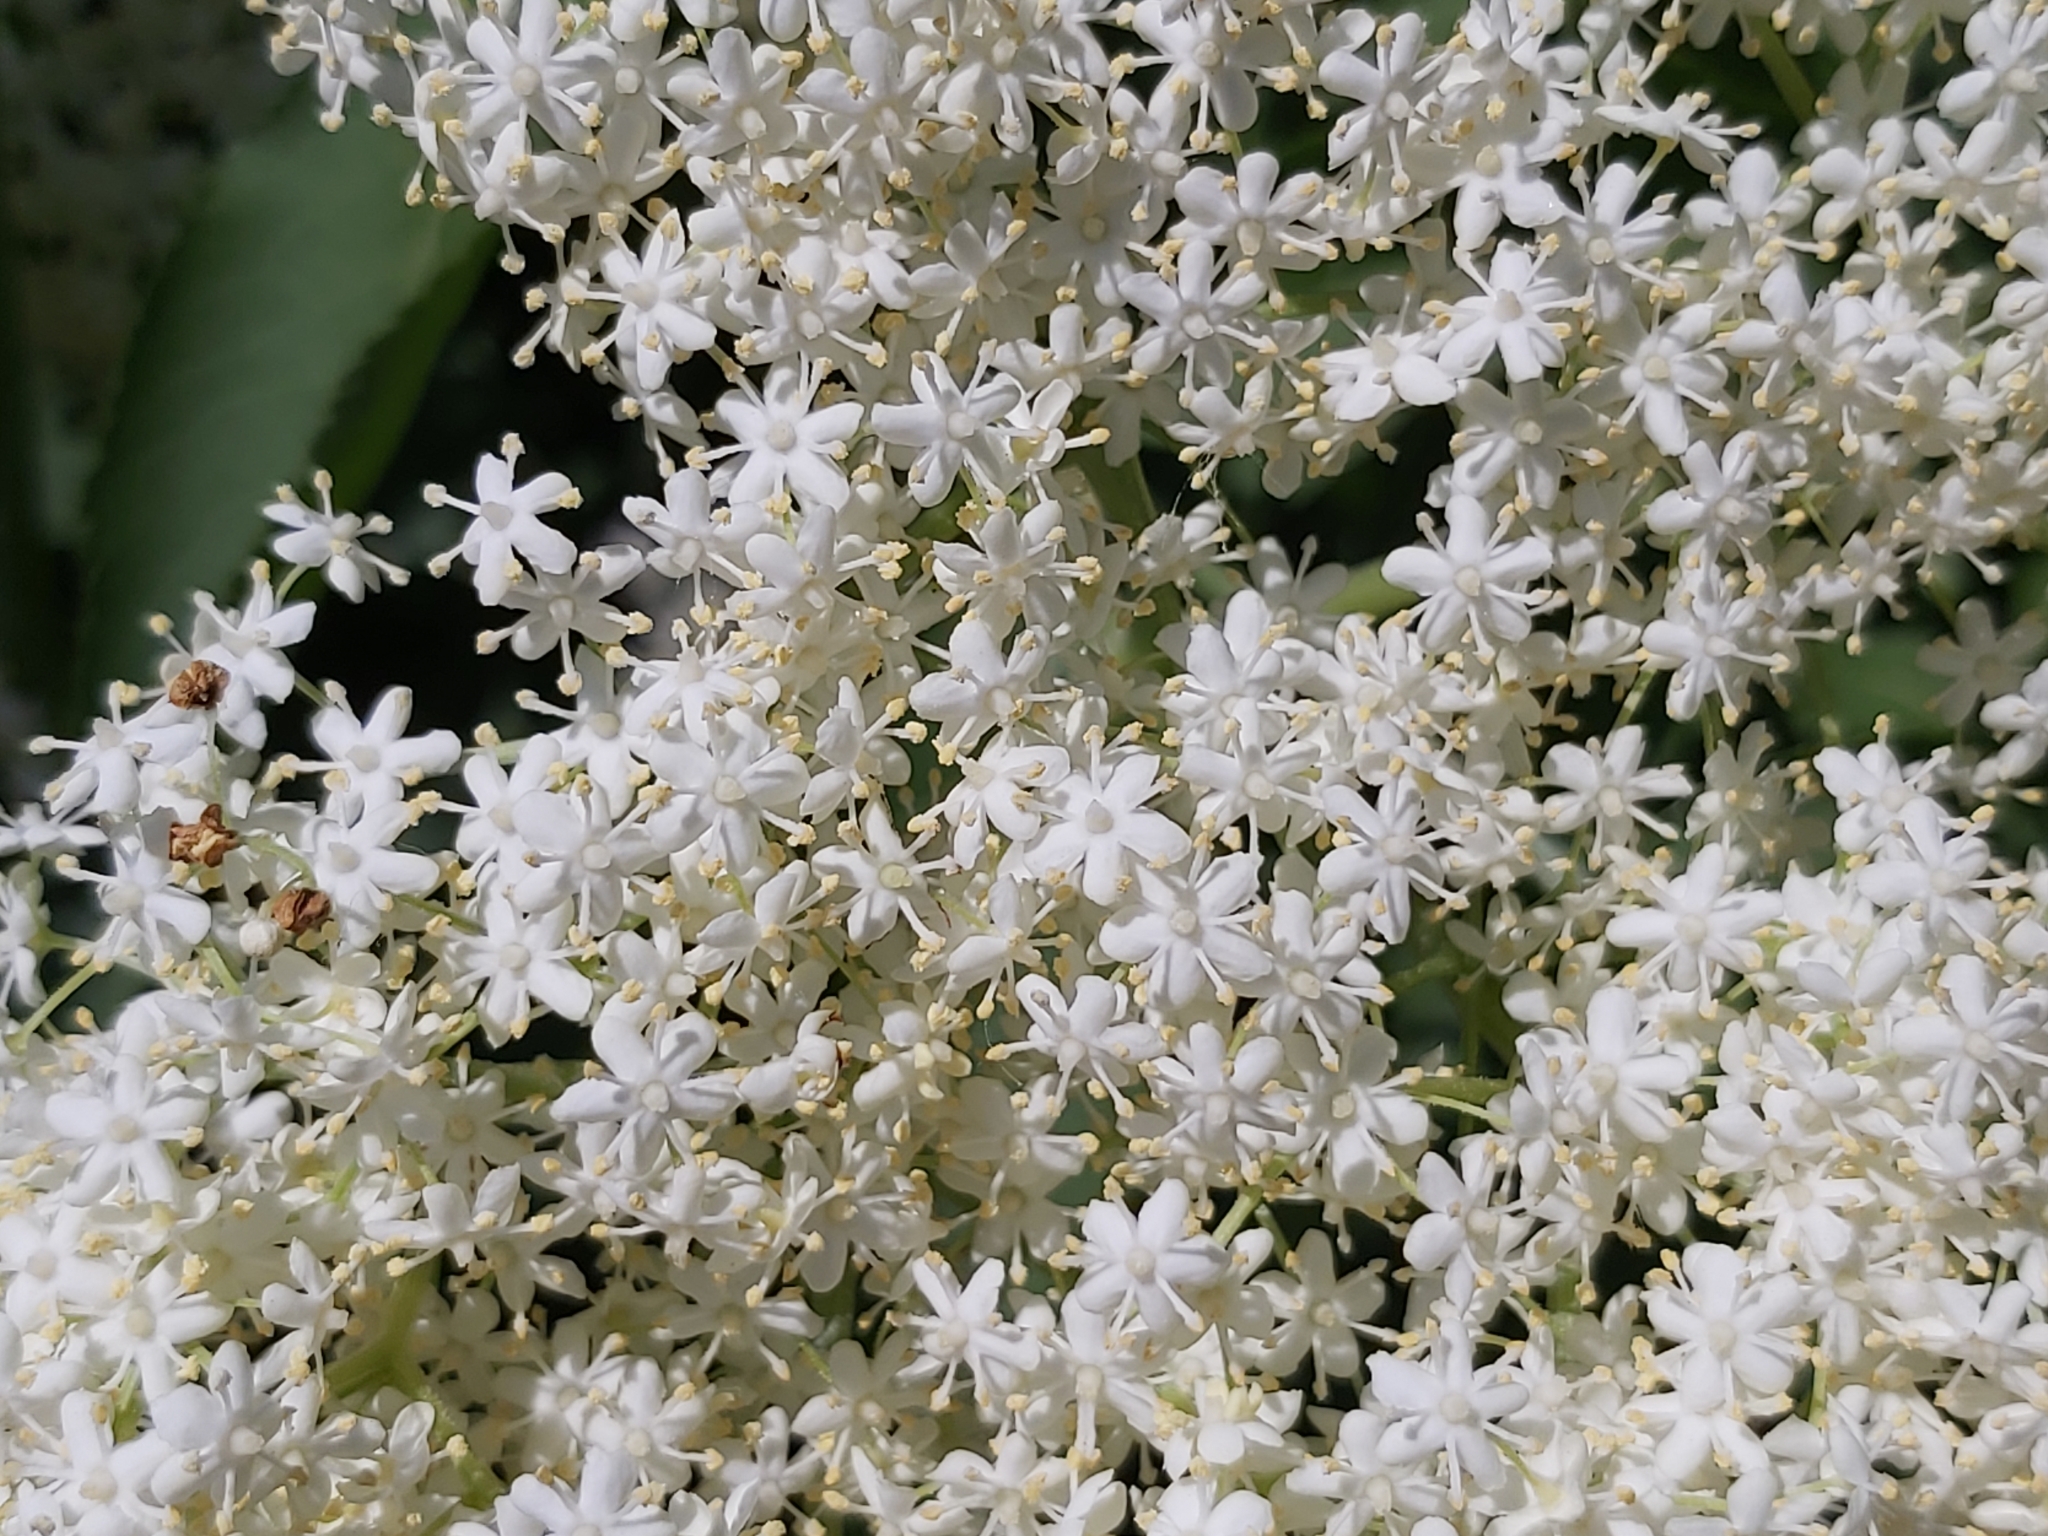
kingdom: Plantae
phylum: Tracheophyta
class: Magnoliopsida
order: Dipsacales
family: Viburnaceae
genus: Sambucus
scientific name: Sambucus nigra
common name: Elder
